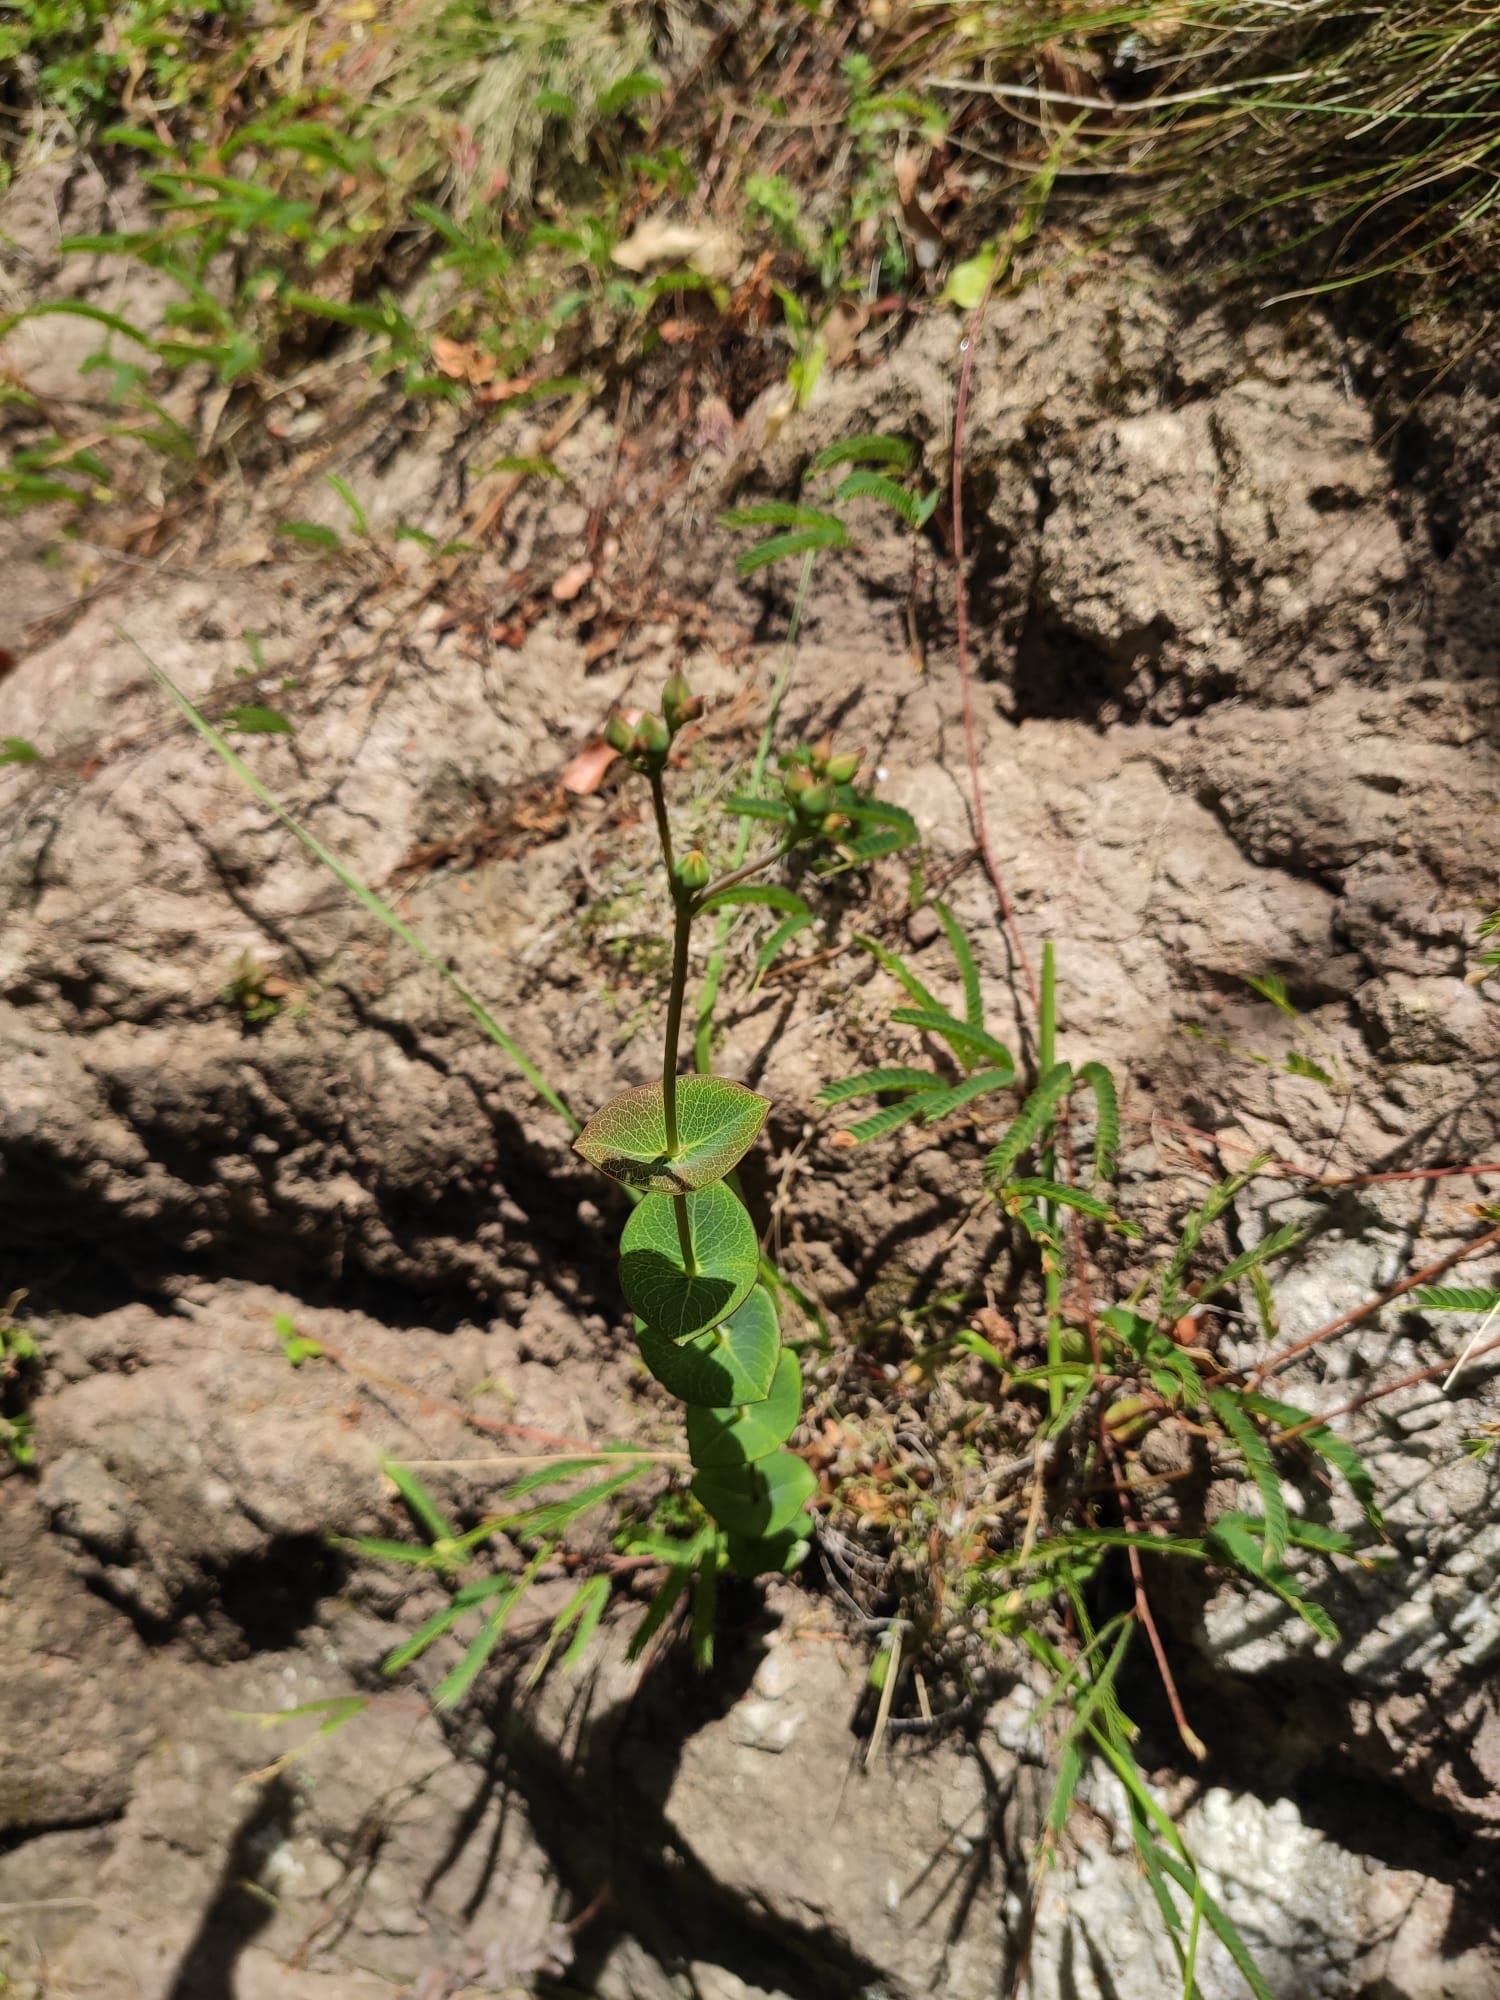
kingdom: Plantae
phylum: Tracheophyta
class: Magnoliopsida
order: Malpighiales
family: Hypericaceae
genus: Hypericum
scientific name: Hypericum connatum
